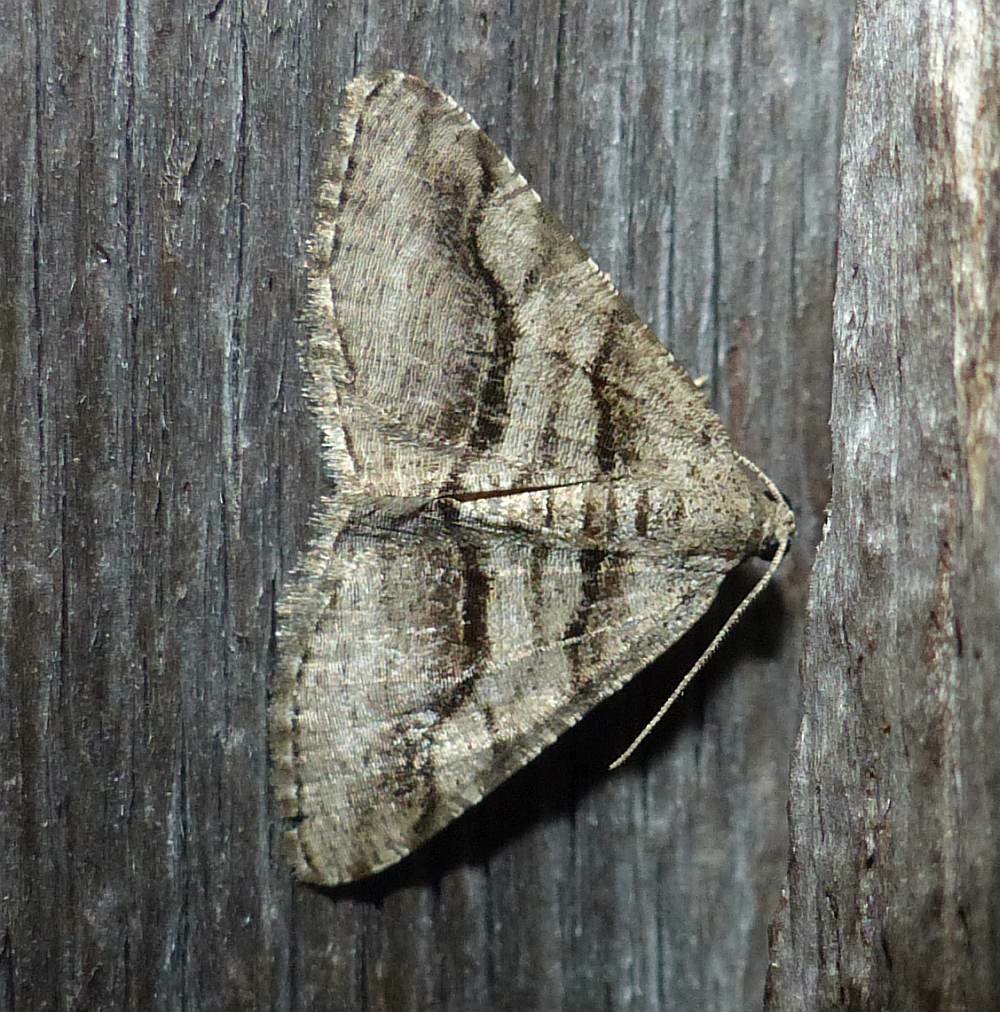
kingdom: Animalia
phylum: Arthropoda
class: Insecta
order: Lepidoptera
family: Geometridae
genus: Digrammia
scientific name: Digrammia continuata
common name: Curve-lined angle
